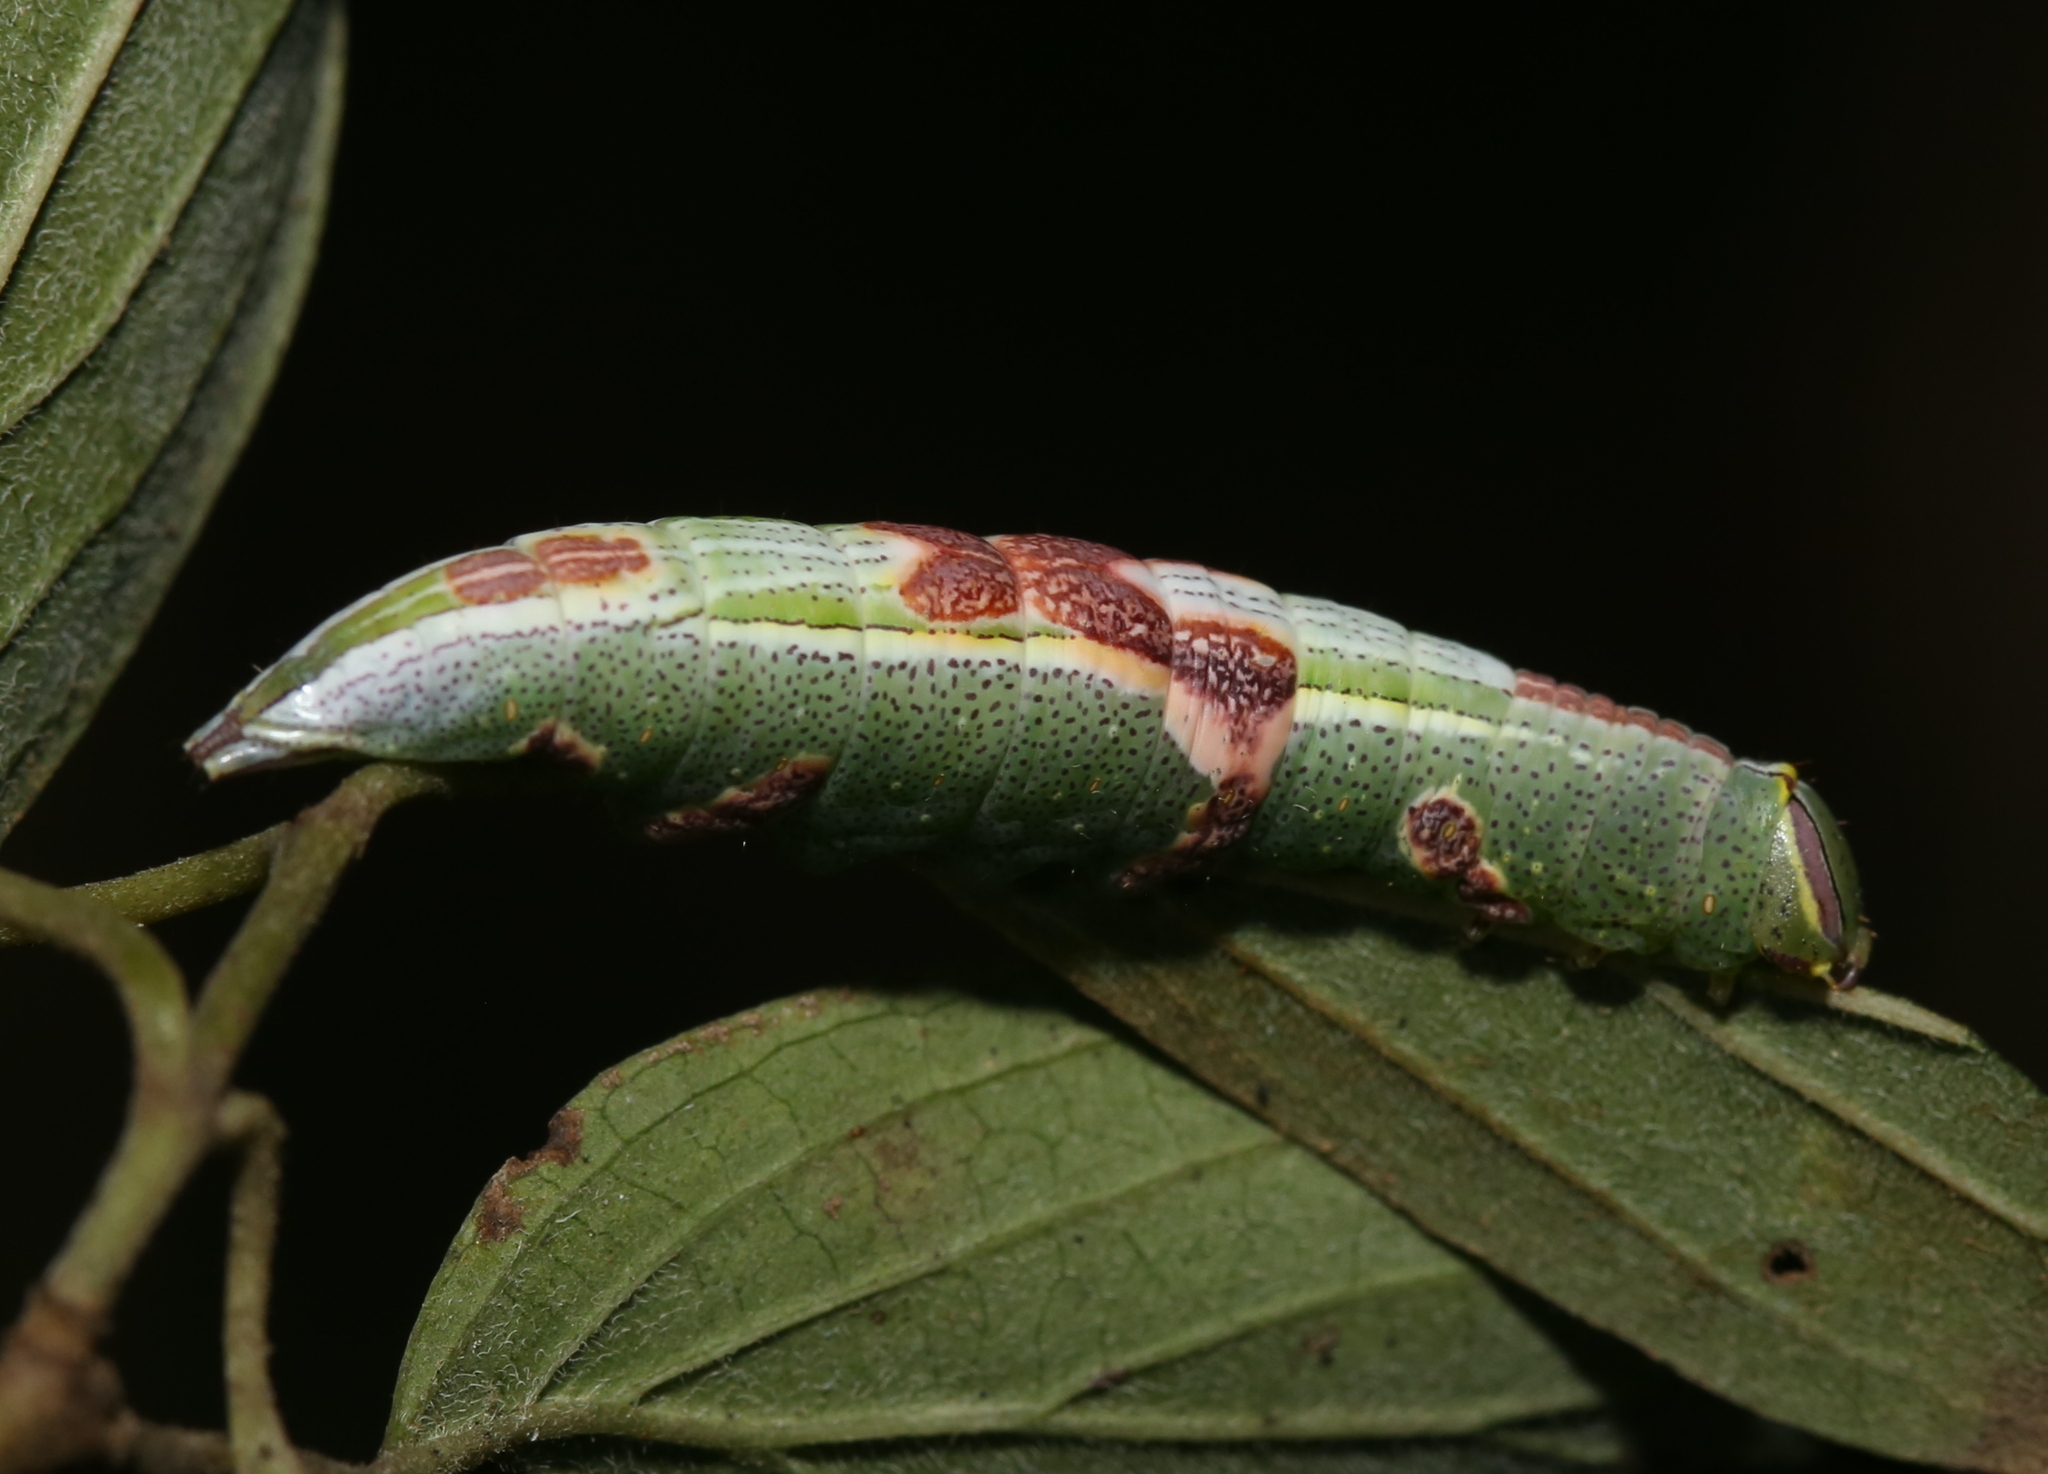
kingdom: Animalia
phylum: Arthropoda
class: Insecta
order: Lepidoptera
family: Notodontidae
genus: Disphragis
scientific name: Disphragis Cecrita guttivitta
